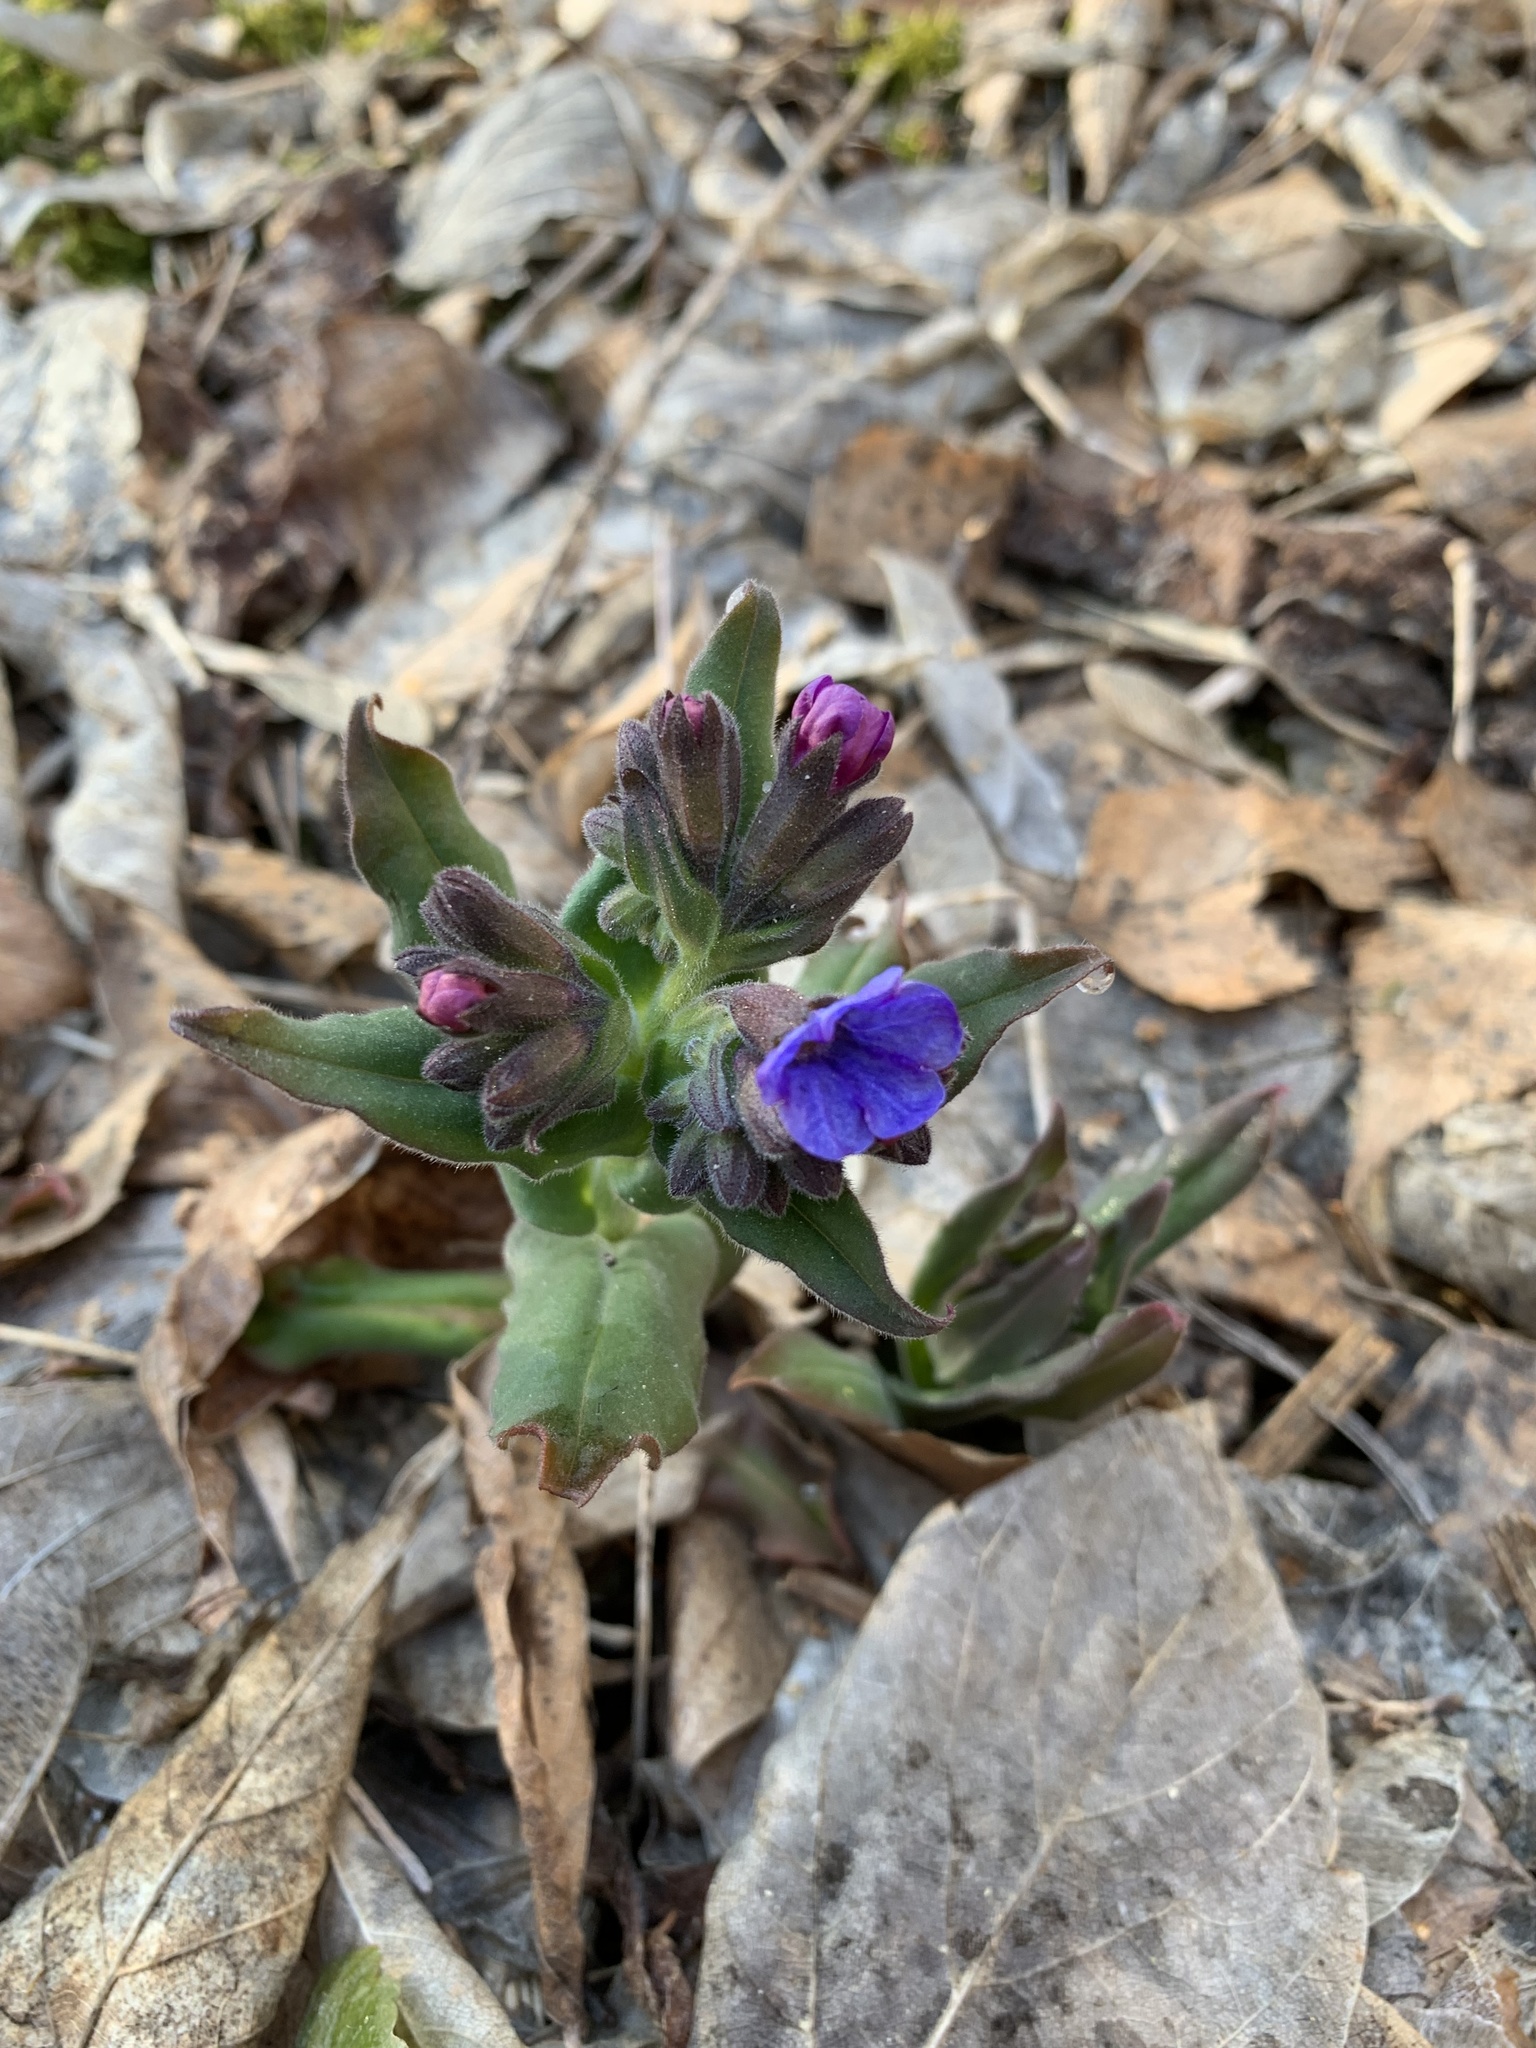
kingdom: Plantae
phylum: Tracheophyta
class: Magnoliopsida
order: Boraginales
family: Boraginaceae
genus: Pulmonaria
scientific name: Pulmonaria mollis
